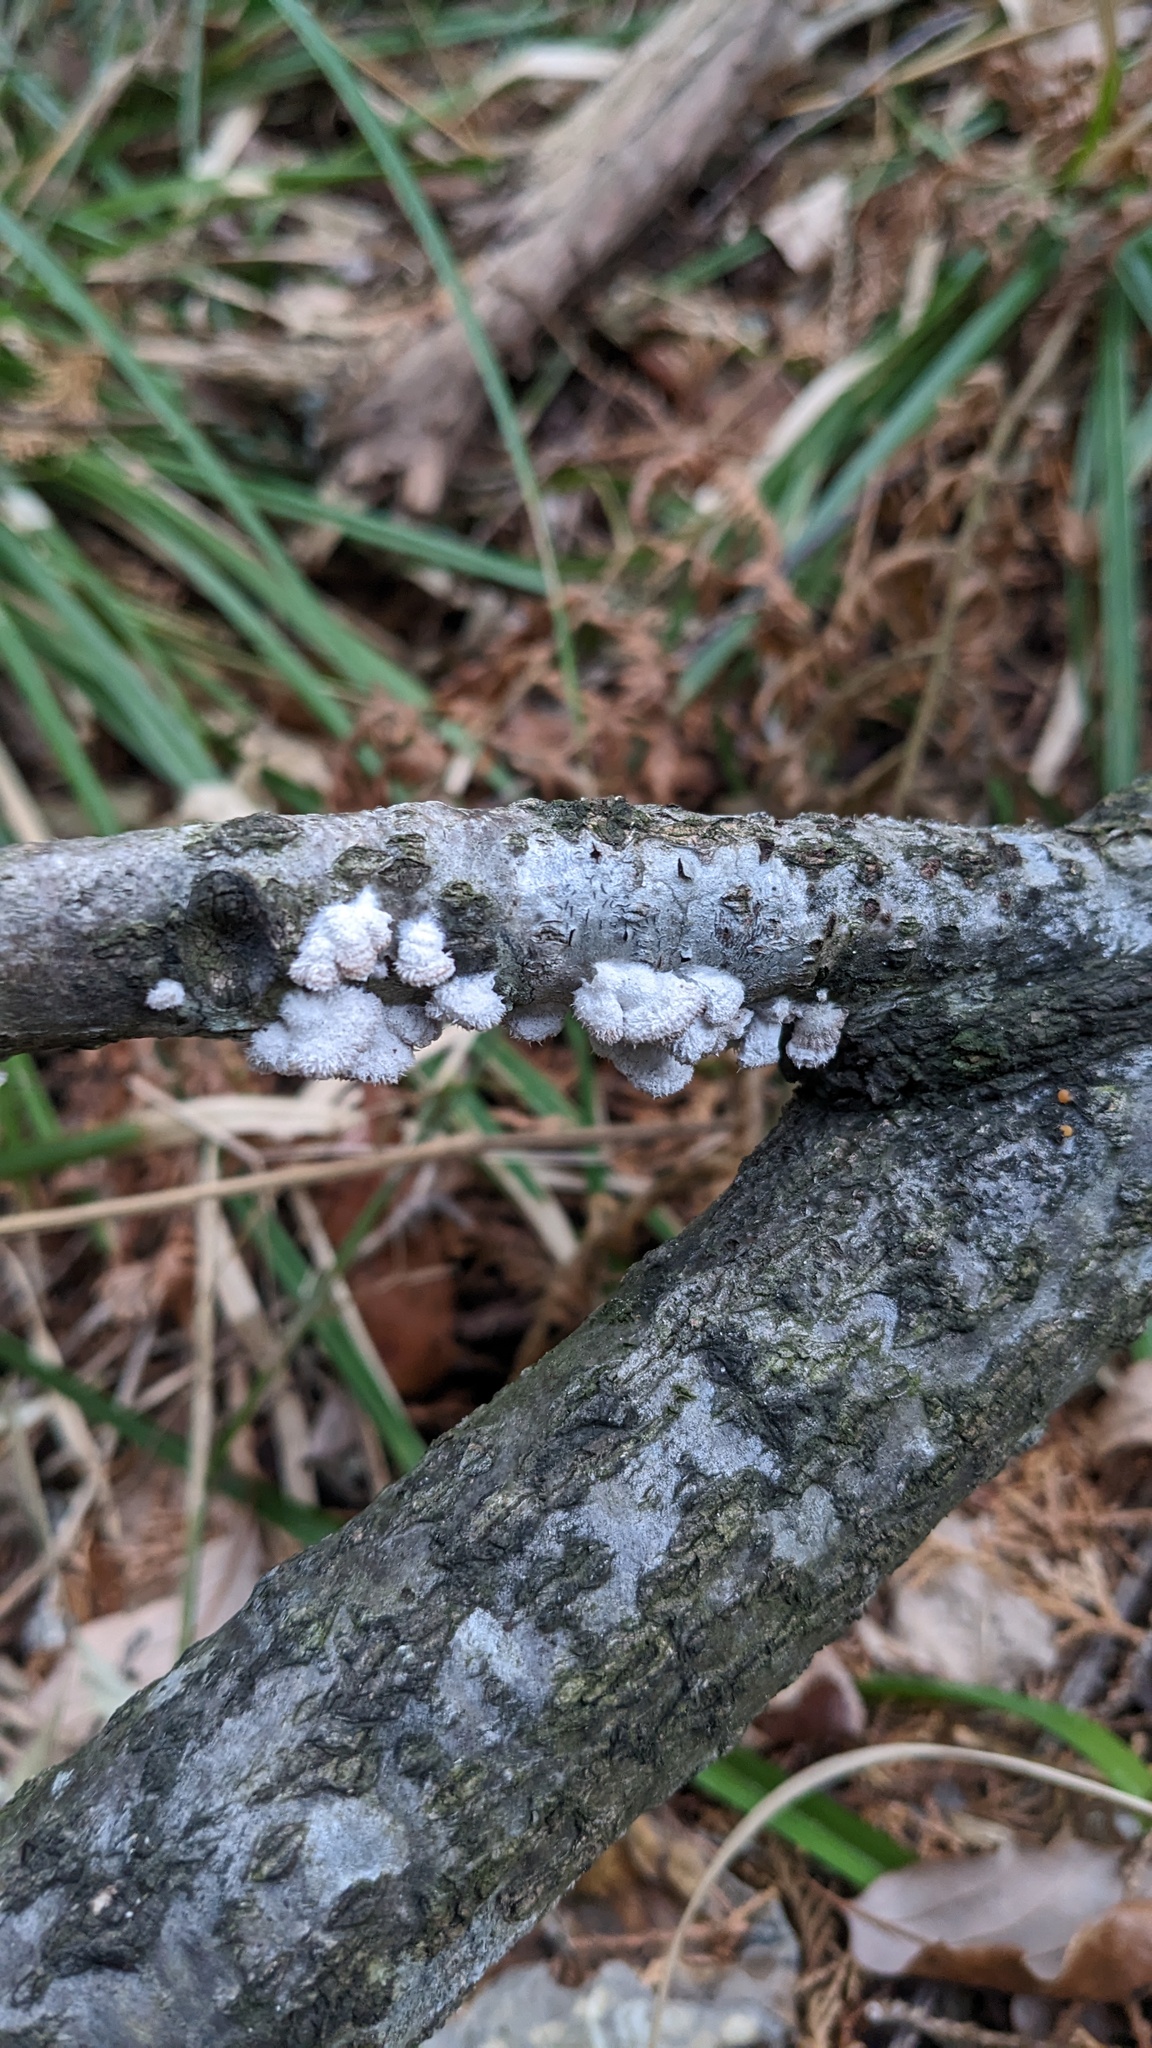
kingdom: Fungi
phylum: Basidiomycota
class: Agaricomycetes
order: Agaricales
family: Schizophyllaceae
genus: Schizophyllum
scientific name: Schizophyllum commune
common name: Common porecrust
